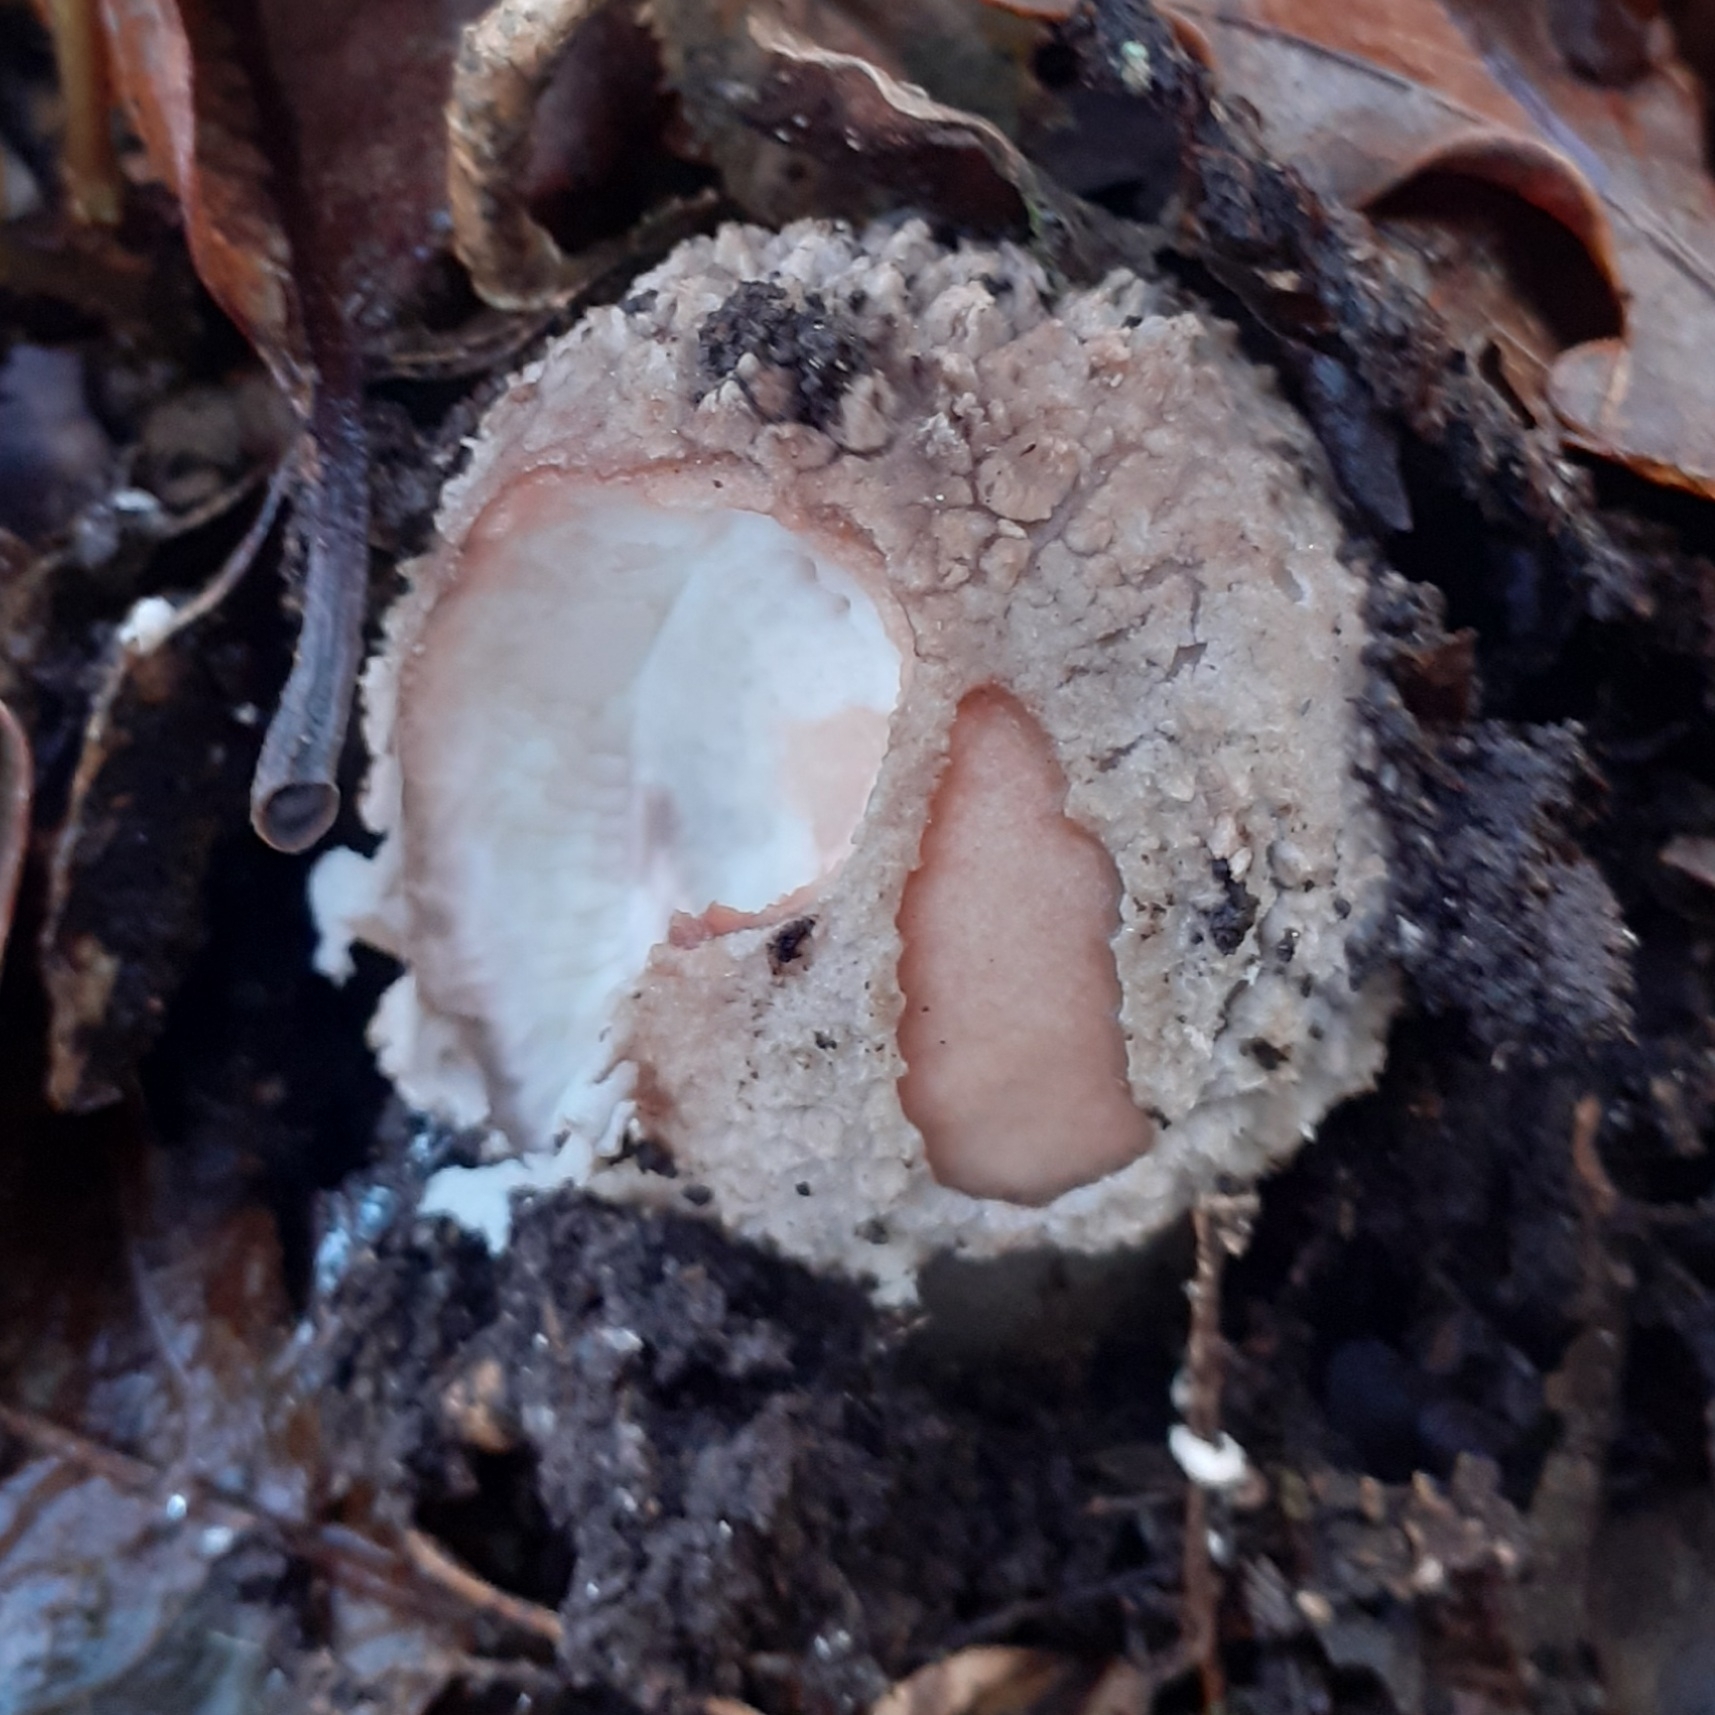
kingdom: Fungi
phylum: Basidiomycota
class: Agaricomycetes
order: Agaricales
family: Amanitaceae
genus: Amanita
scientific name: Amanita rubescens
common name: Blusher
